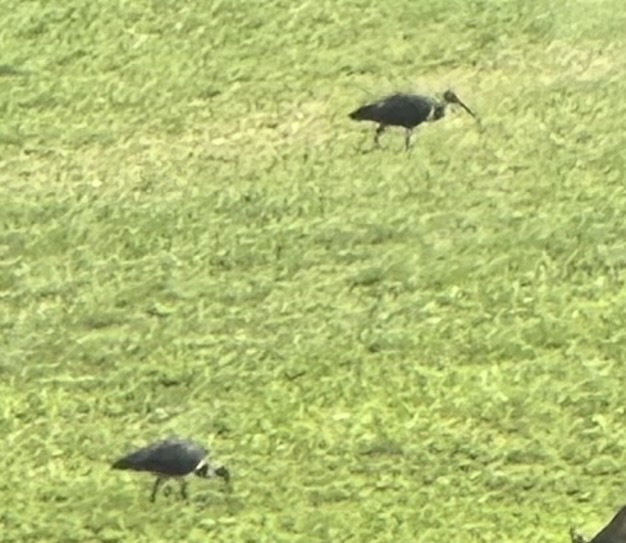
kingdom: Animalia
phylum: Chordata
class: Aves
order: Pelecaniformes
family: Threskiornithidae
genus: Threskiornis
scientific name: Threskiornis spinicollis
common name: Straw-necked ibis
